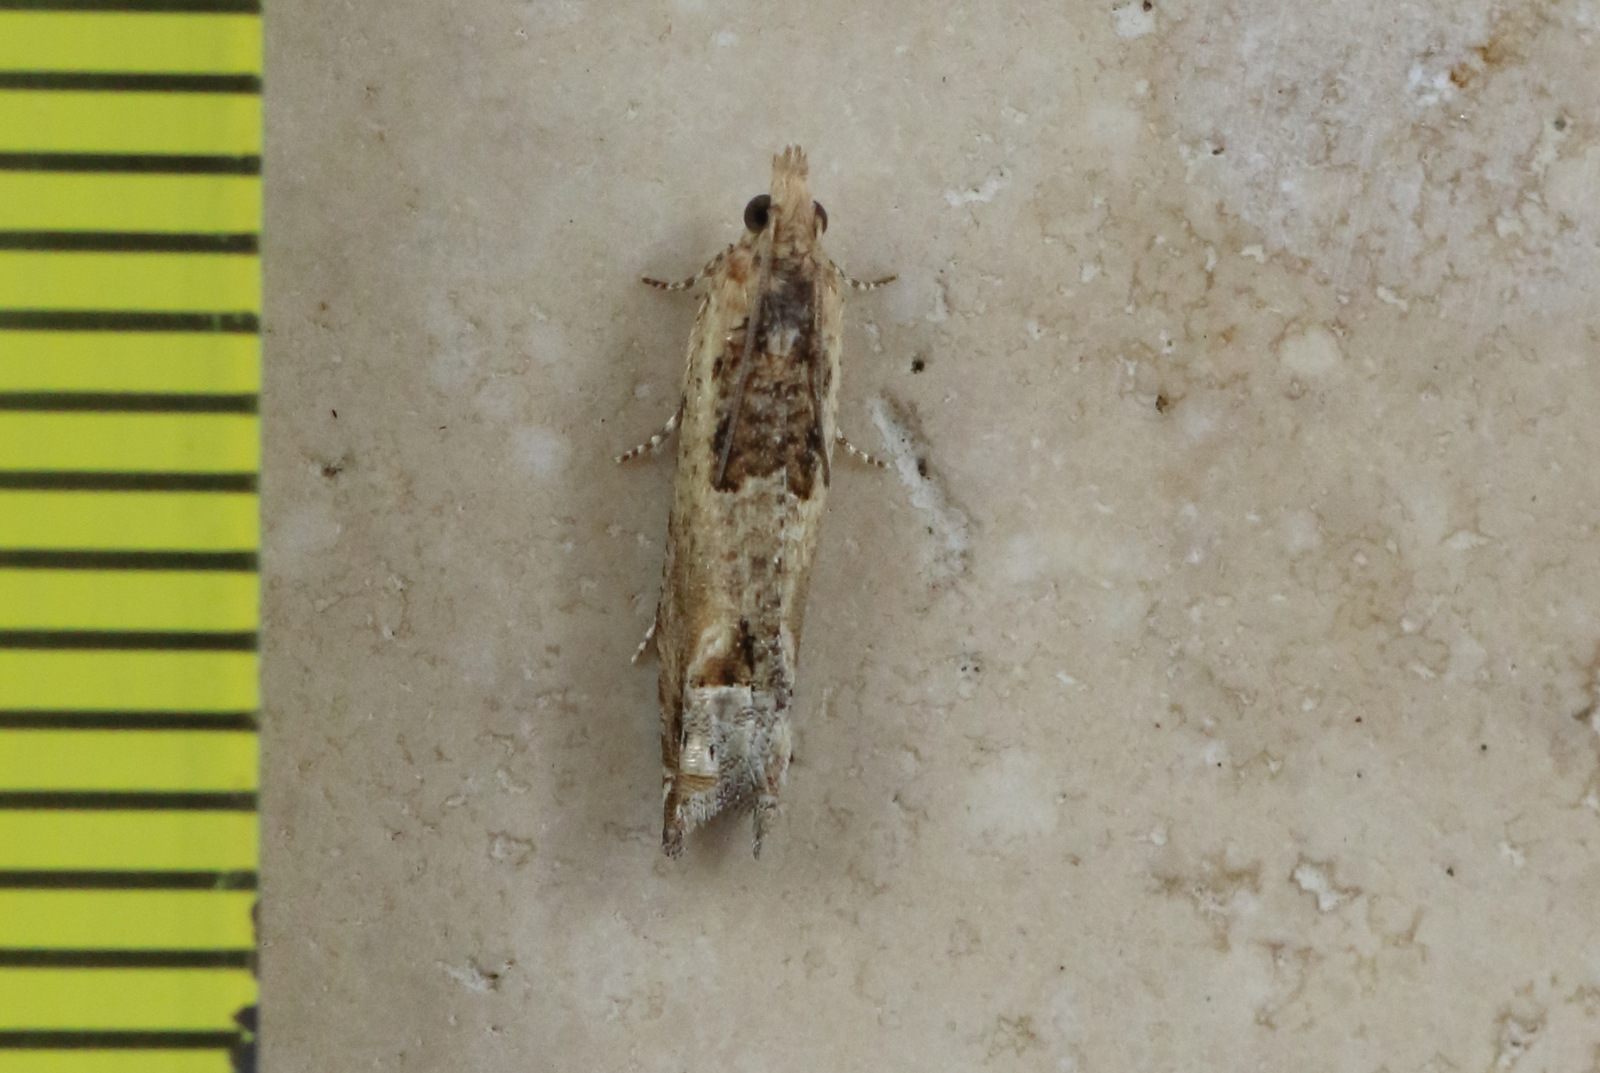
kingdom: Animalia
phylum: Arthropoda
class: Insecta
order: Lepidoptera
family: Tortricidae
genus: Crocidosema
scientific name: Crocidosema plebejana
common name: Southern bell
